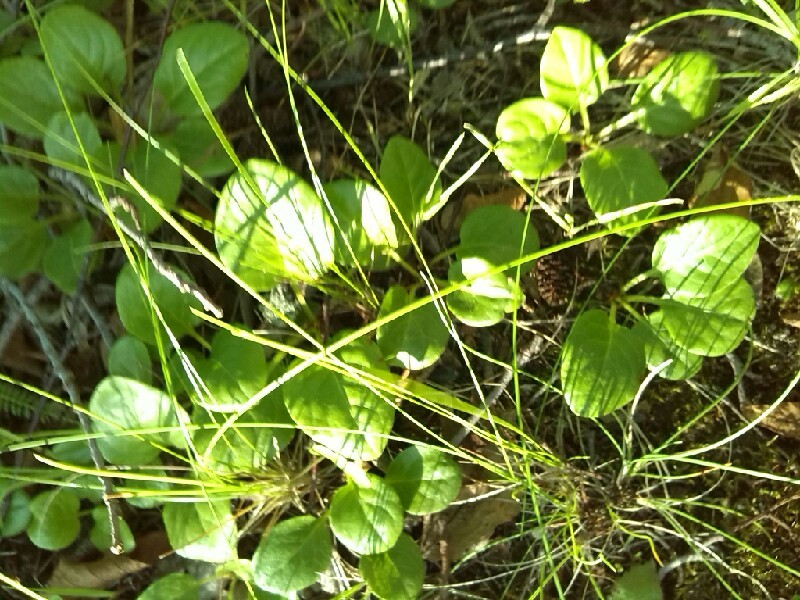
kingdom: Plantae
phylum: Tracheophyta
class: Magnoliopsida
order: Ericales
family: Ericaceae
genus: Pyrola
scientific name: Pyrola
